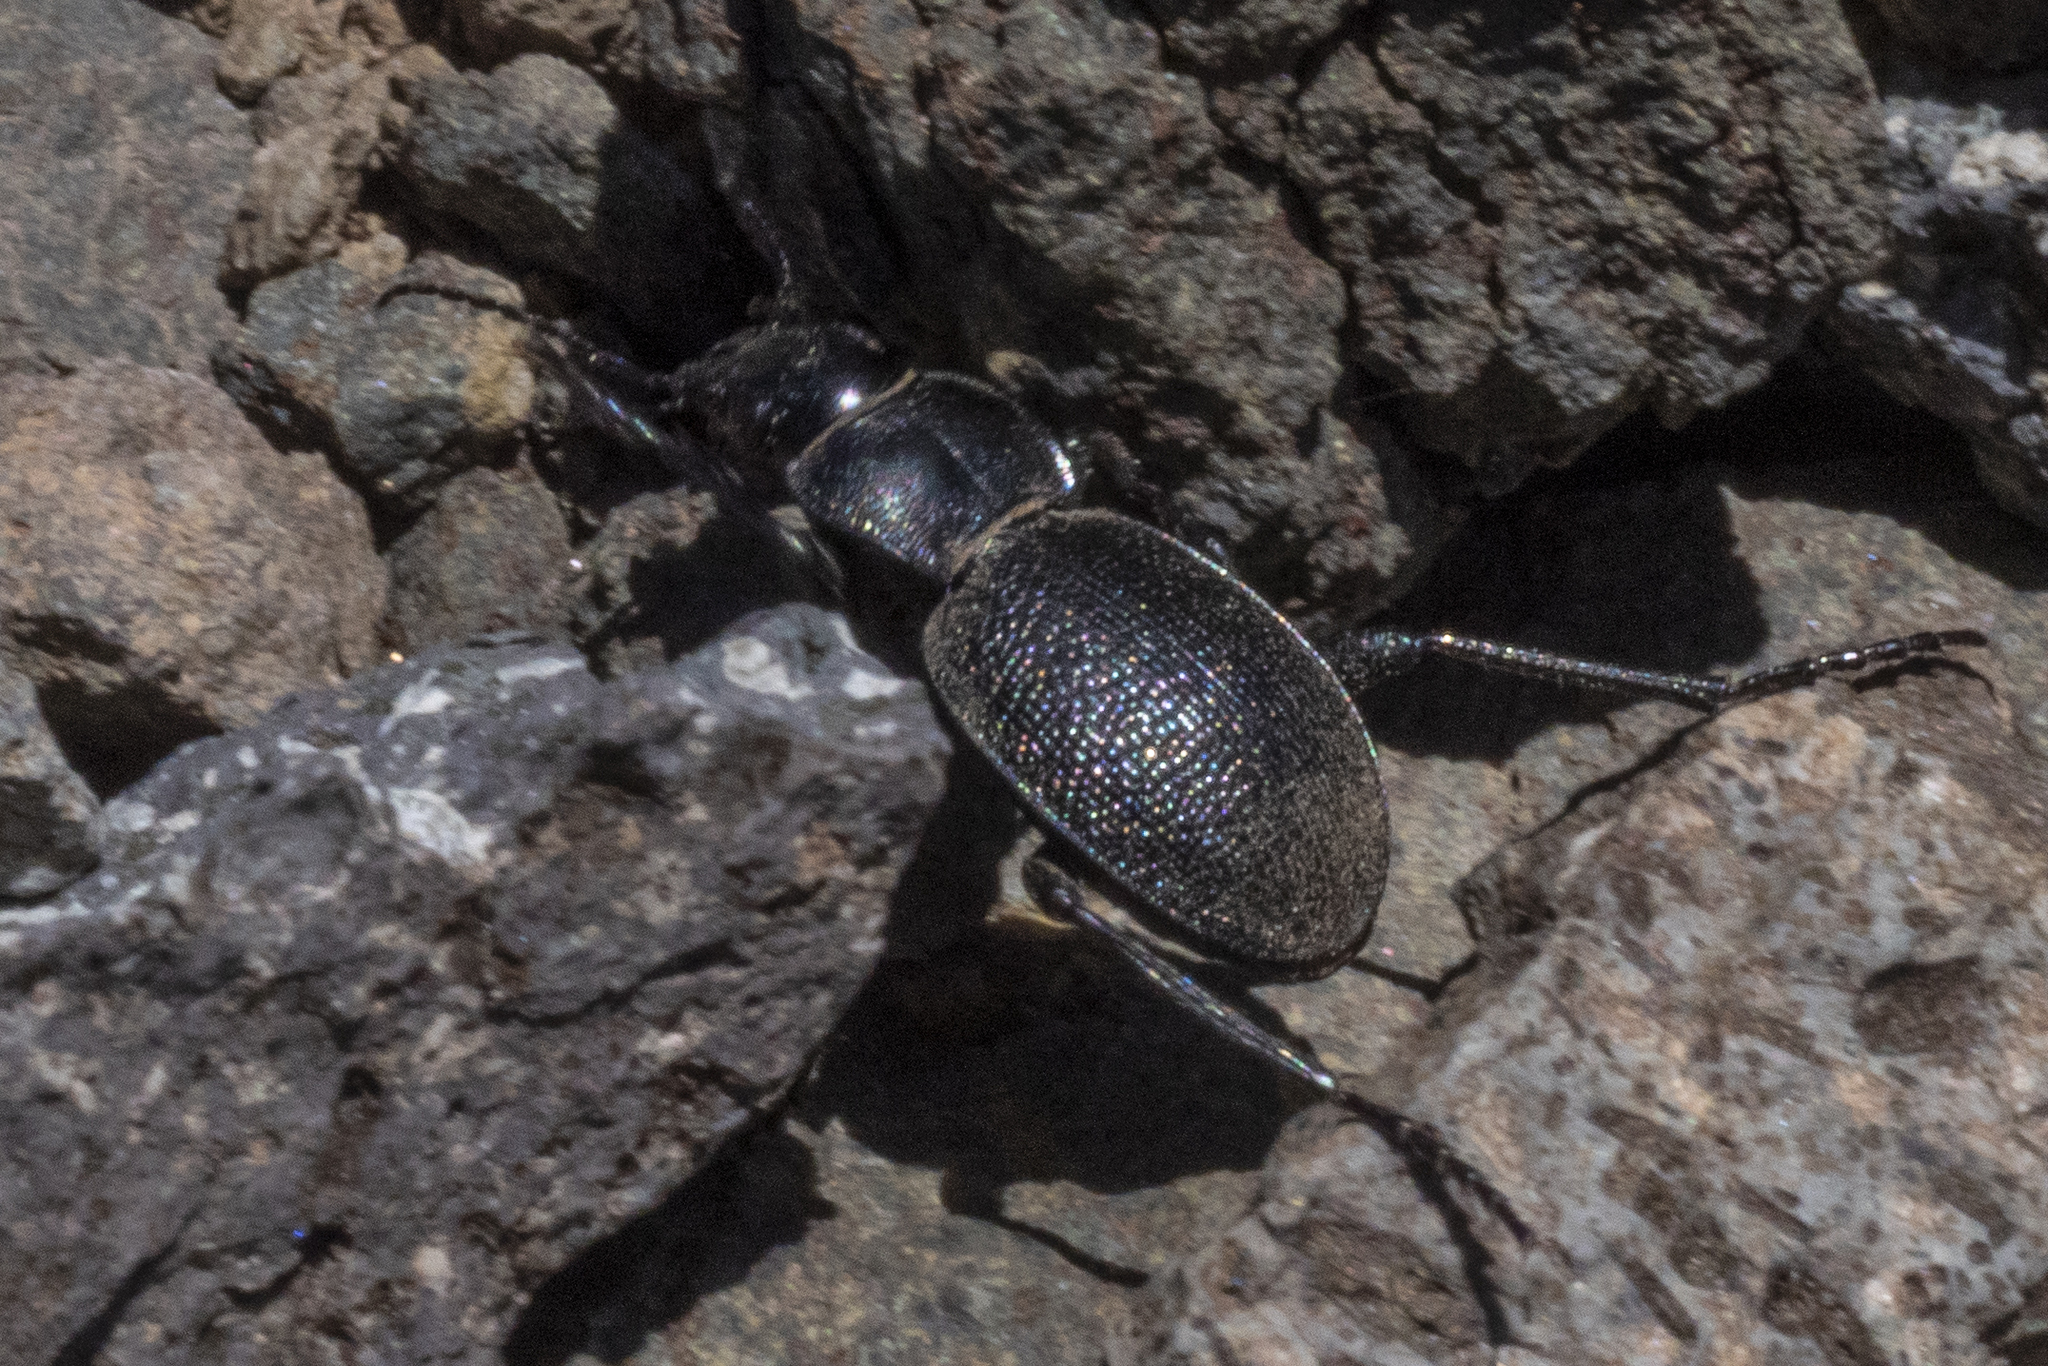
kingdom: Animalia
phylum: Arthropoda
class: Insecta
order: Coleoptera
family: Carabidae
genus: Calosoma
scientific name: Calosoma luxatum
